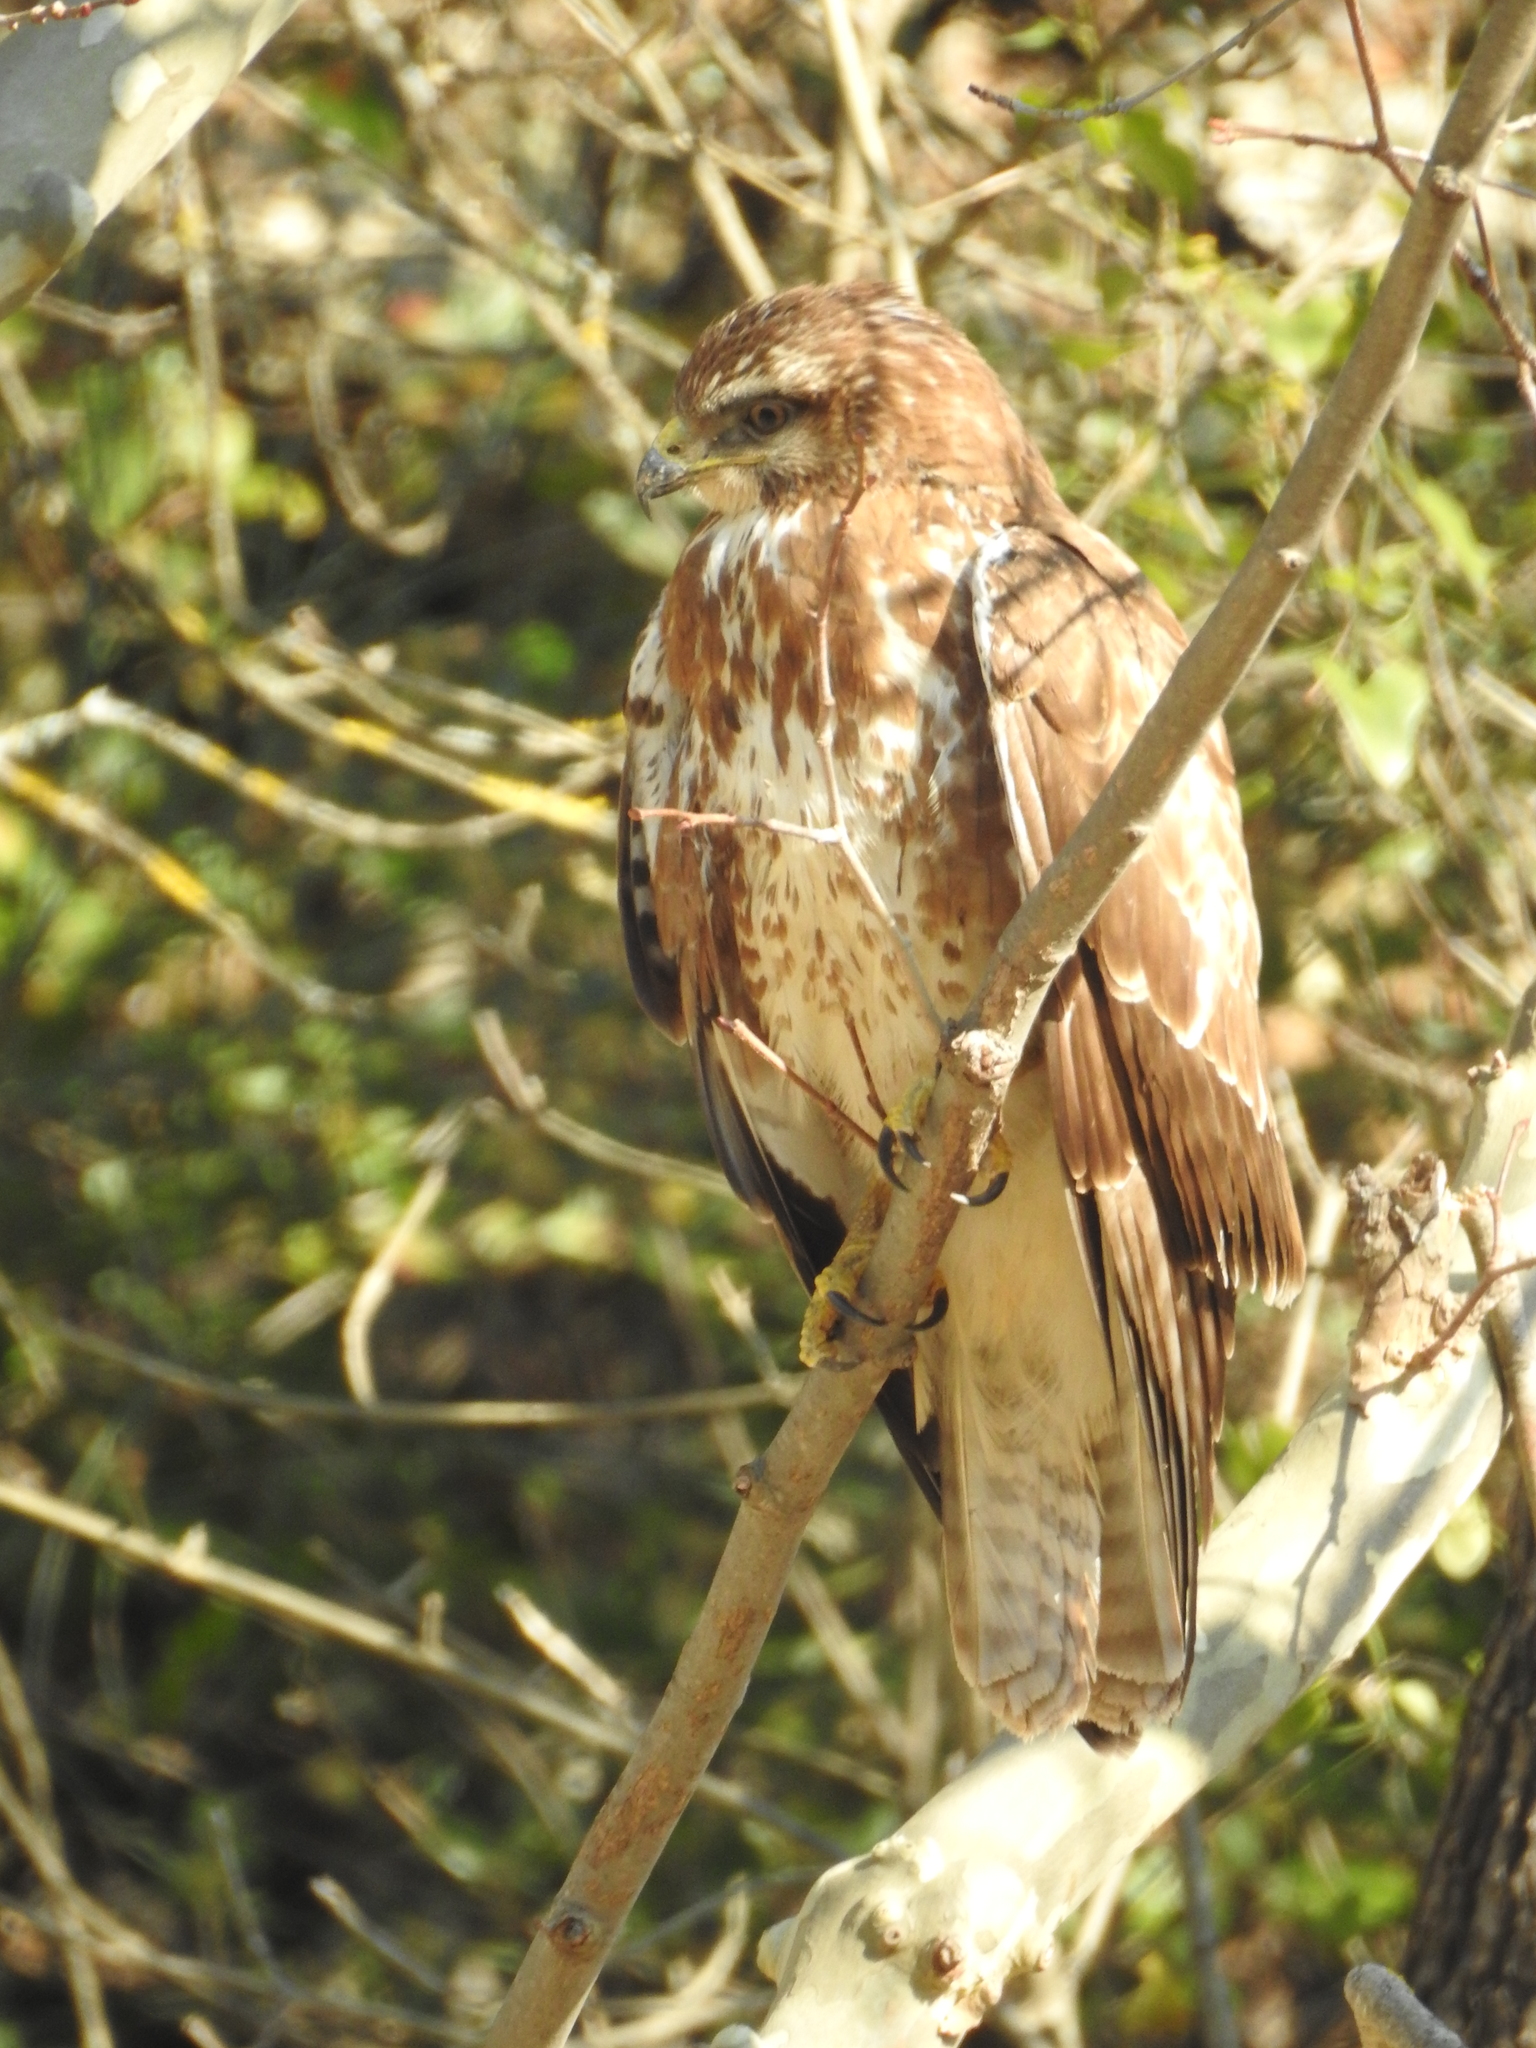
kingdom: Animalia
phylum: Chordata
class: Aves
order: Accipitriformes
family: Accipitridae
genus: Buteo
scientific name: Buteo buteo
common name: Common buzzard
